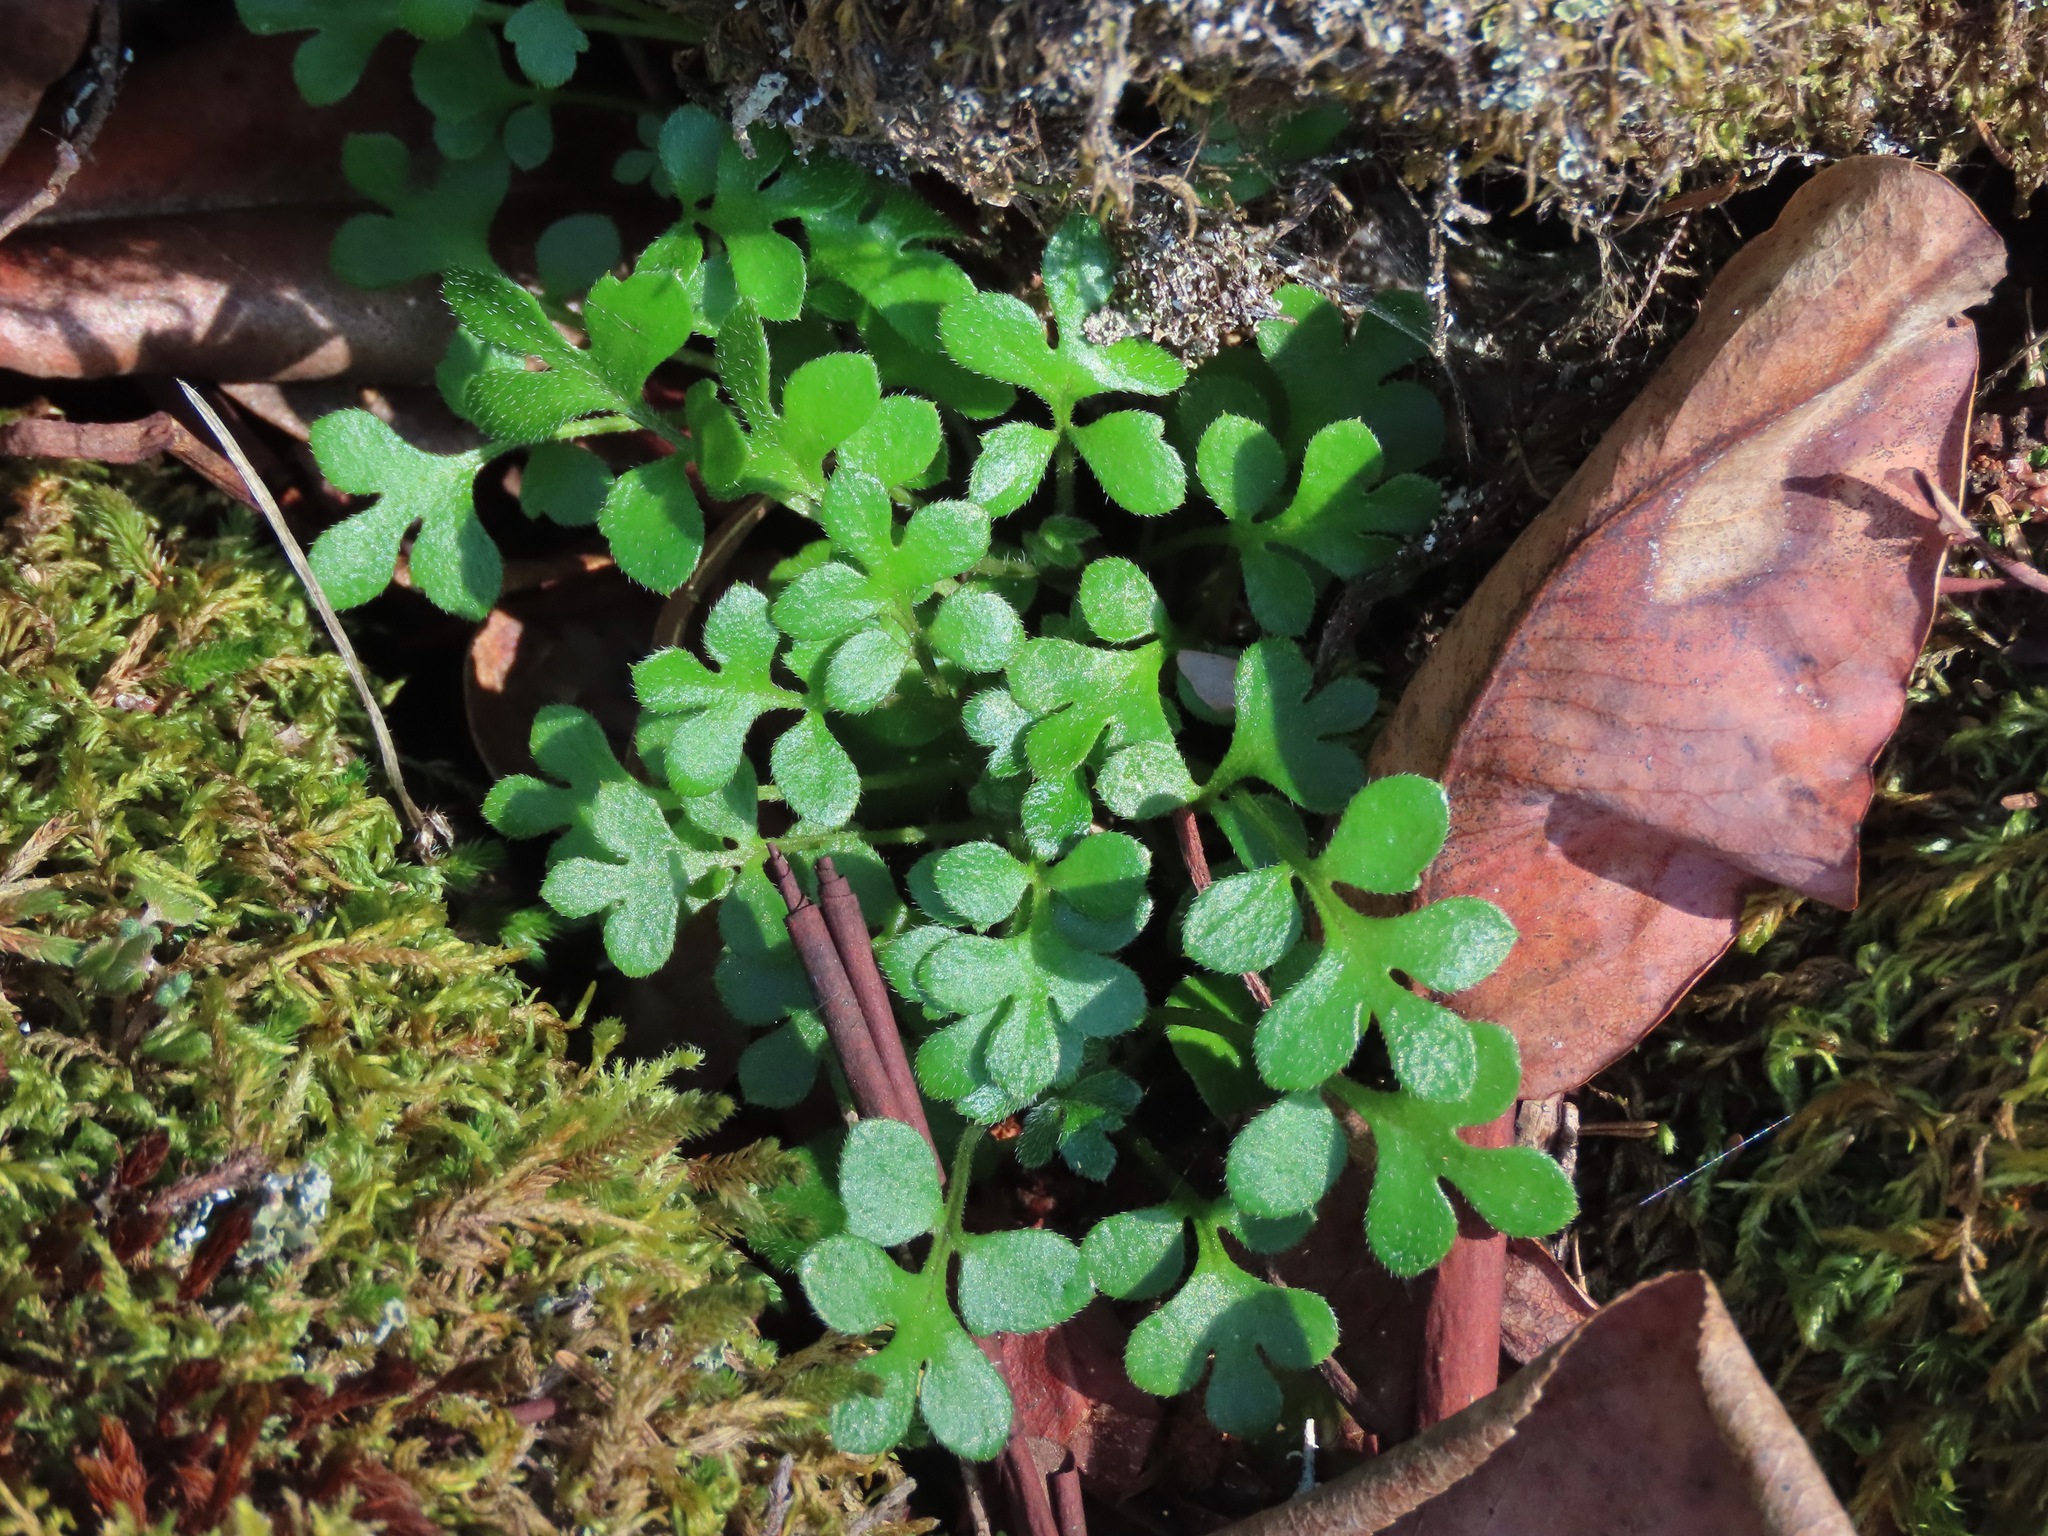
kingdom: Plantae
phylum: Tracheophyta
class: Magnoliopsida
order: Boraginales
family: Hydrophyllaceae
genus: Nemophila
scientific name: Nemophila parviflora
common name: Small-flowered baby-blue-eyes
